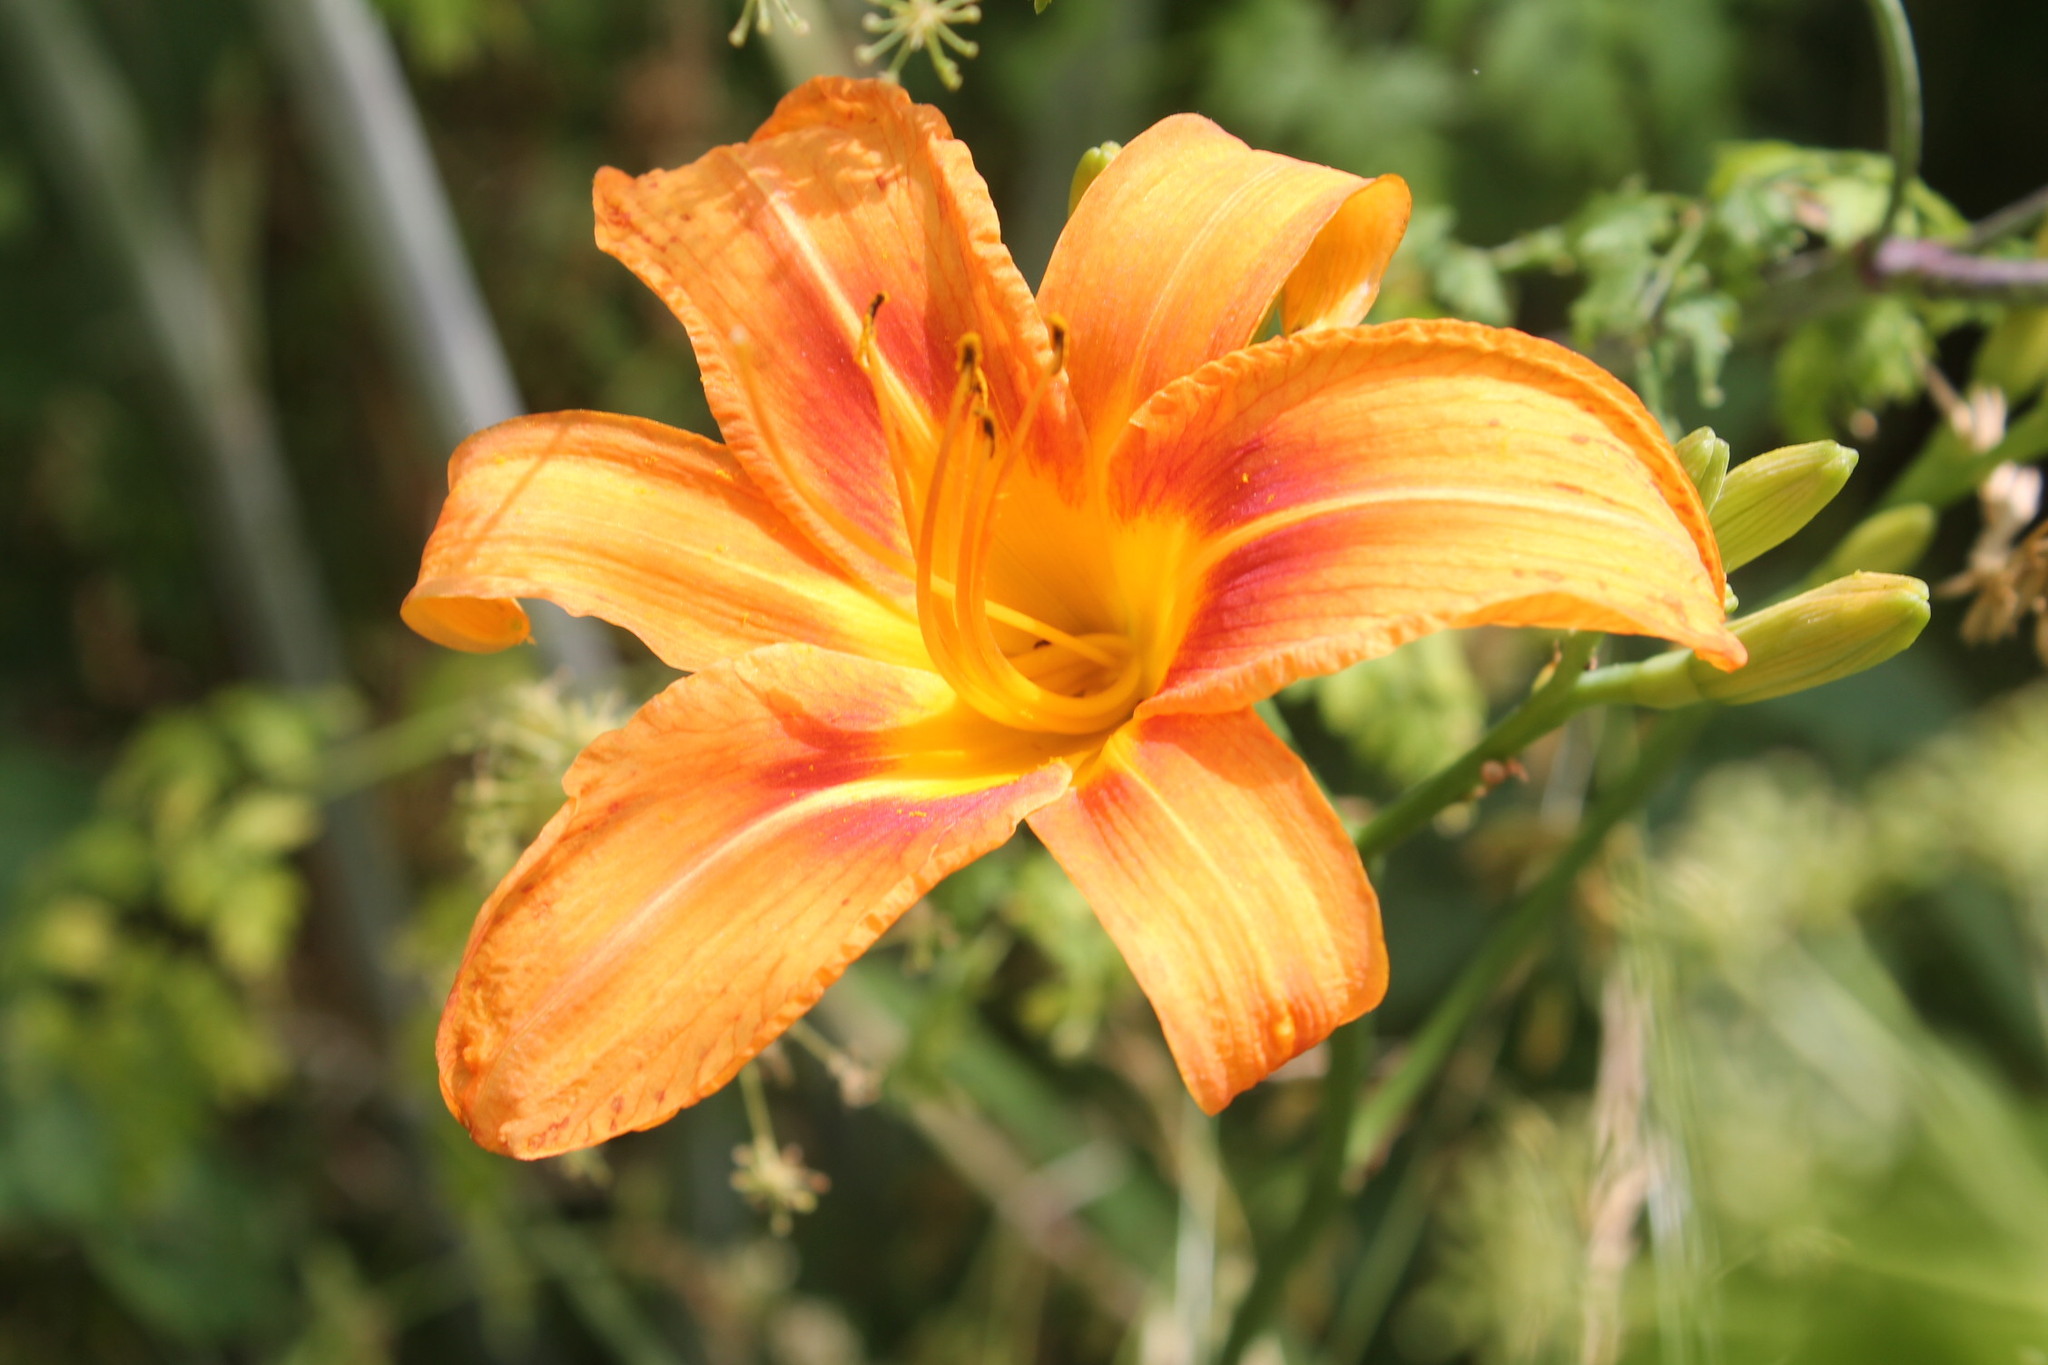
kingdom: Plantae
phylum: Tracheophyta
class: Liliopsida
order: Asparagales
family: Asphodelaceae
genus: Hemerocallis
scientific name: Hemerocallis fulva
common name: Orange day-lily
